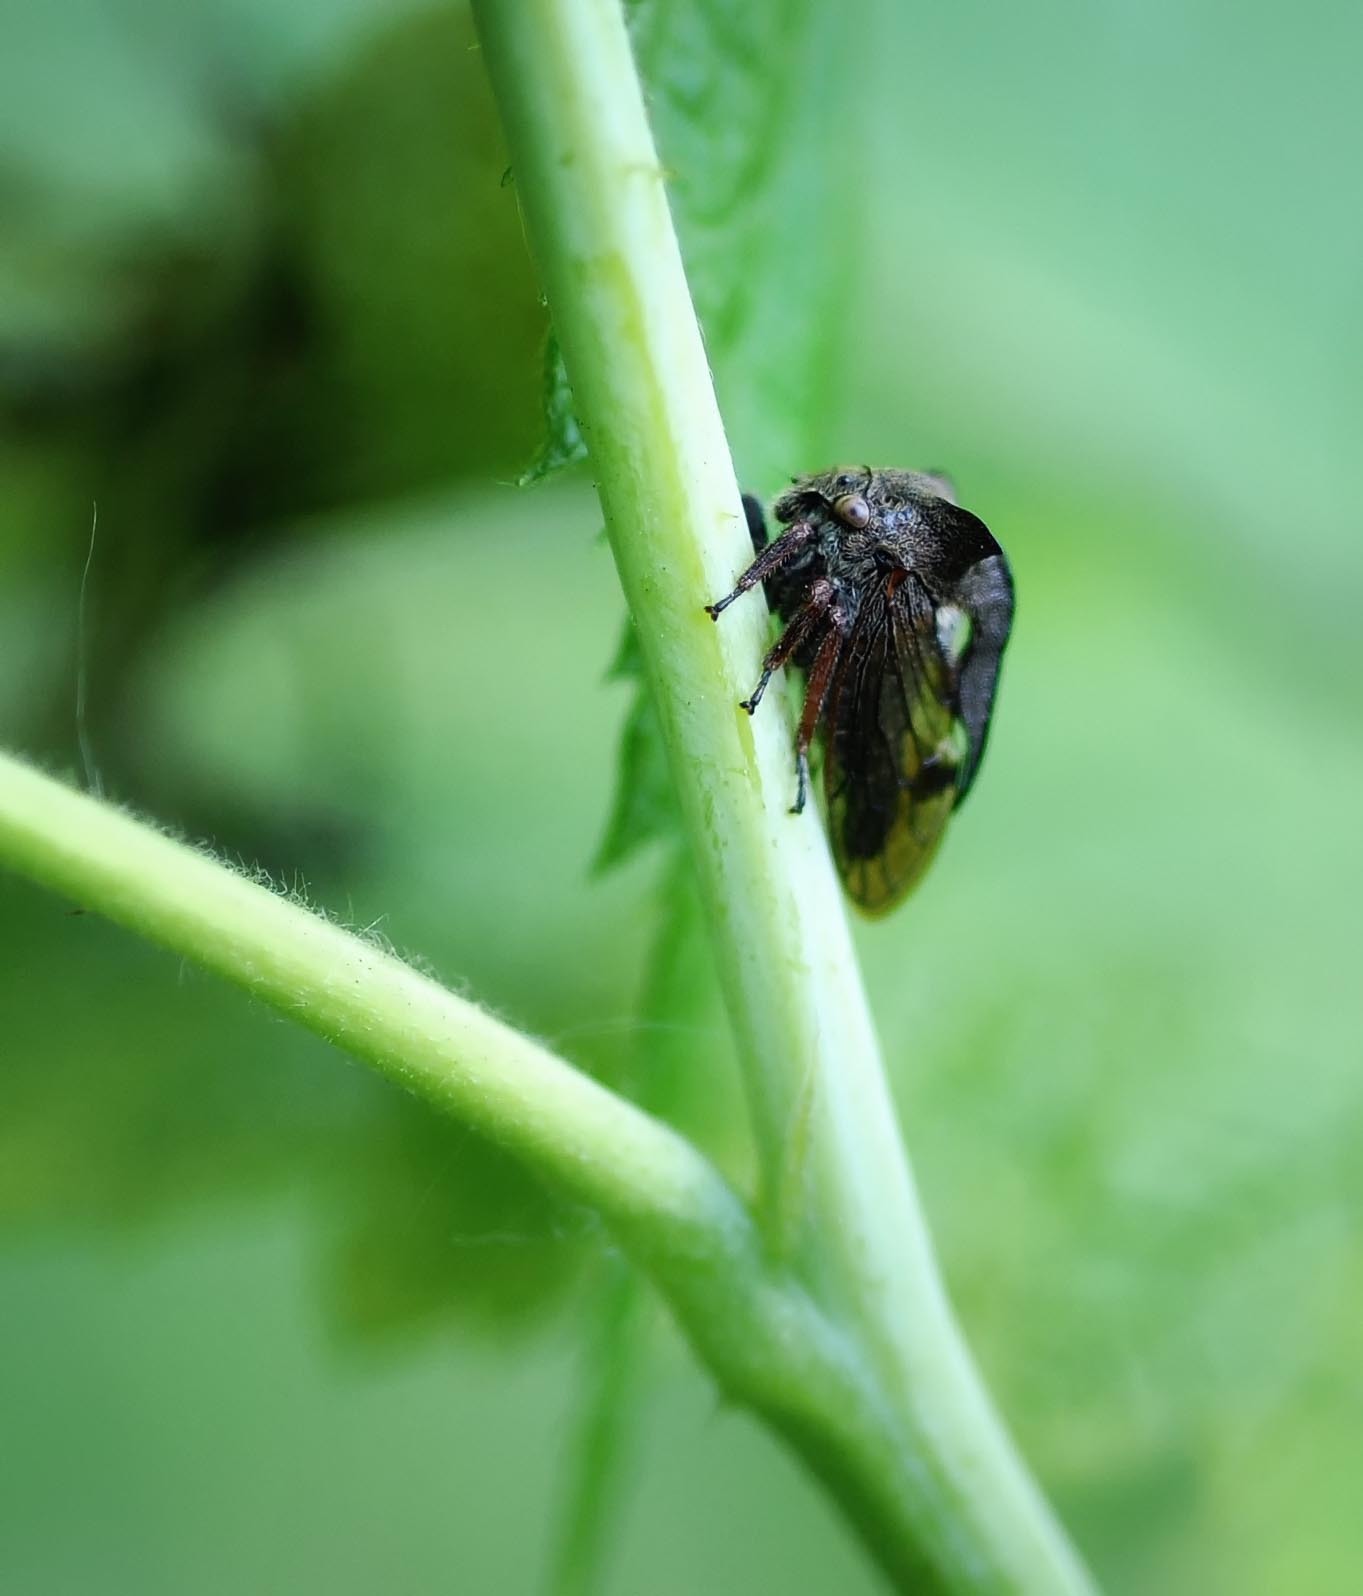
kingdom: Animalia
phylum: Arthropoda
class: Insecta
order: Hemiptera
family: Membracidae
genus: Centrotus
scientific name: Centrotus cornuta
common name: Treehopper
